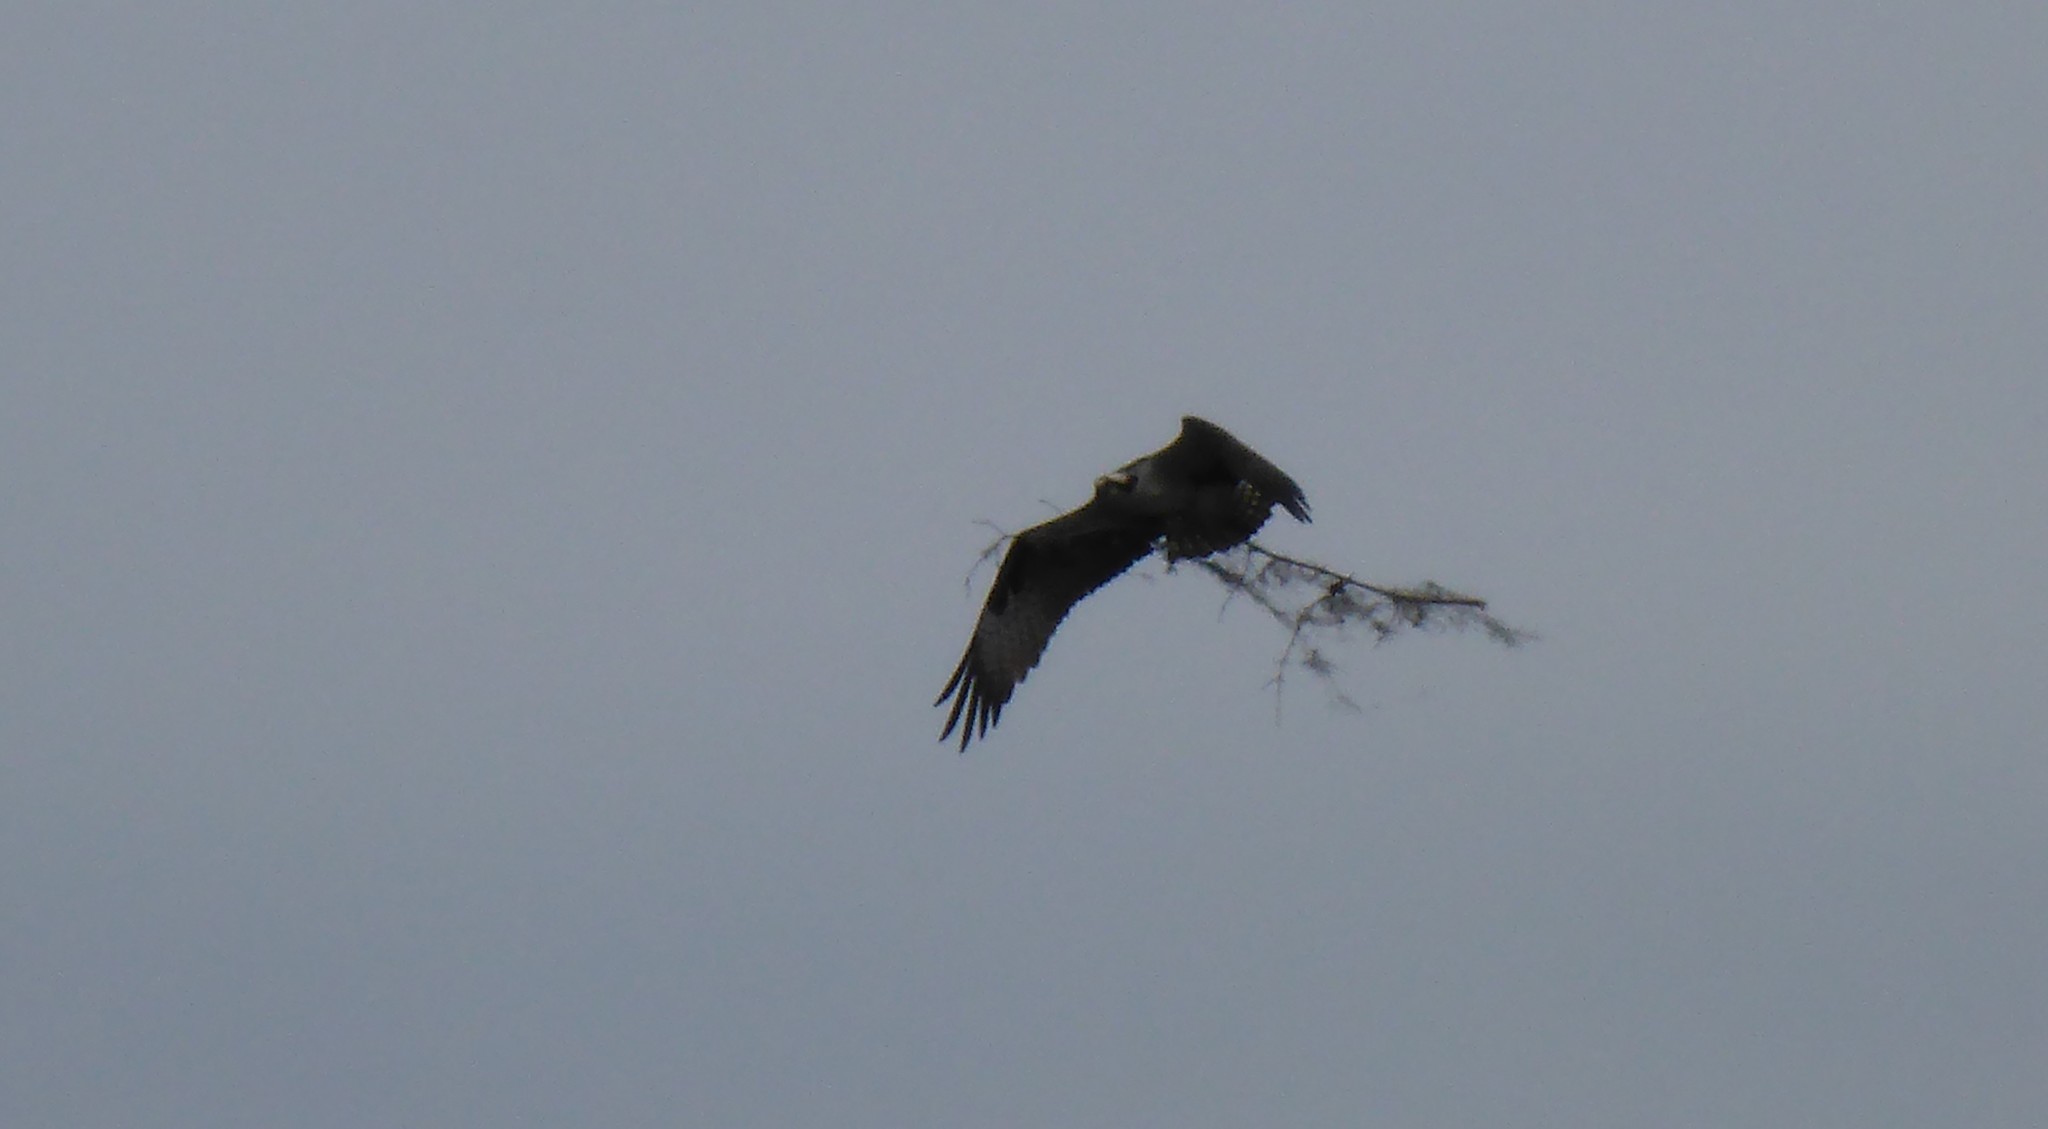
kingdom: Animalia
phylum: Chordata
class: Aves
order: Accipitriformes
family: Pandionidae
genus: Pandion
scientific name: Pandion haliaetus
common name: Osprey
